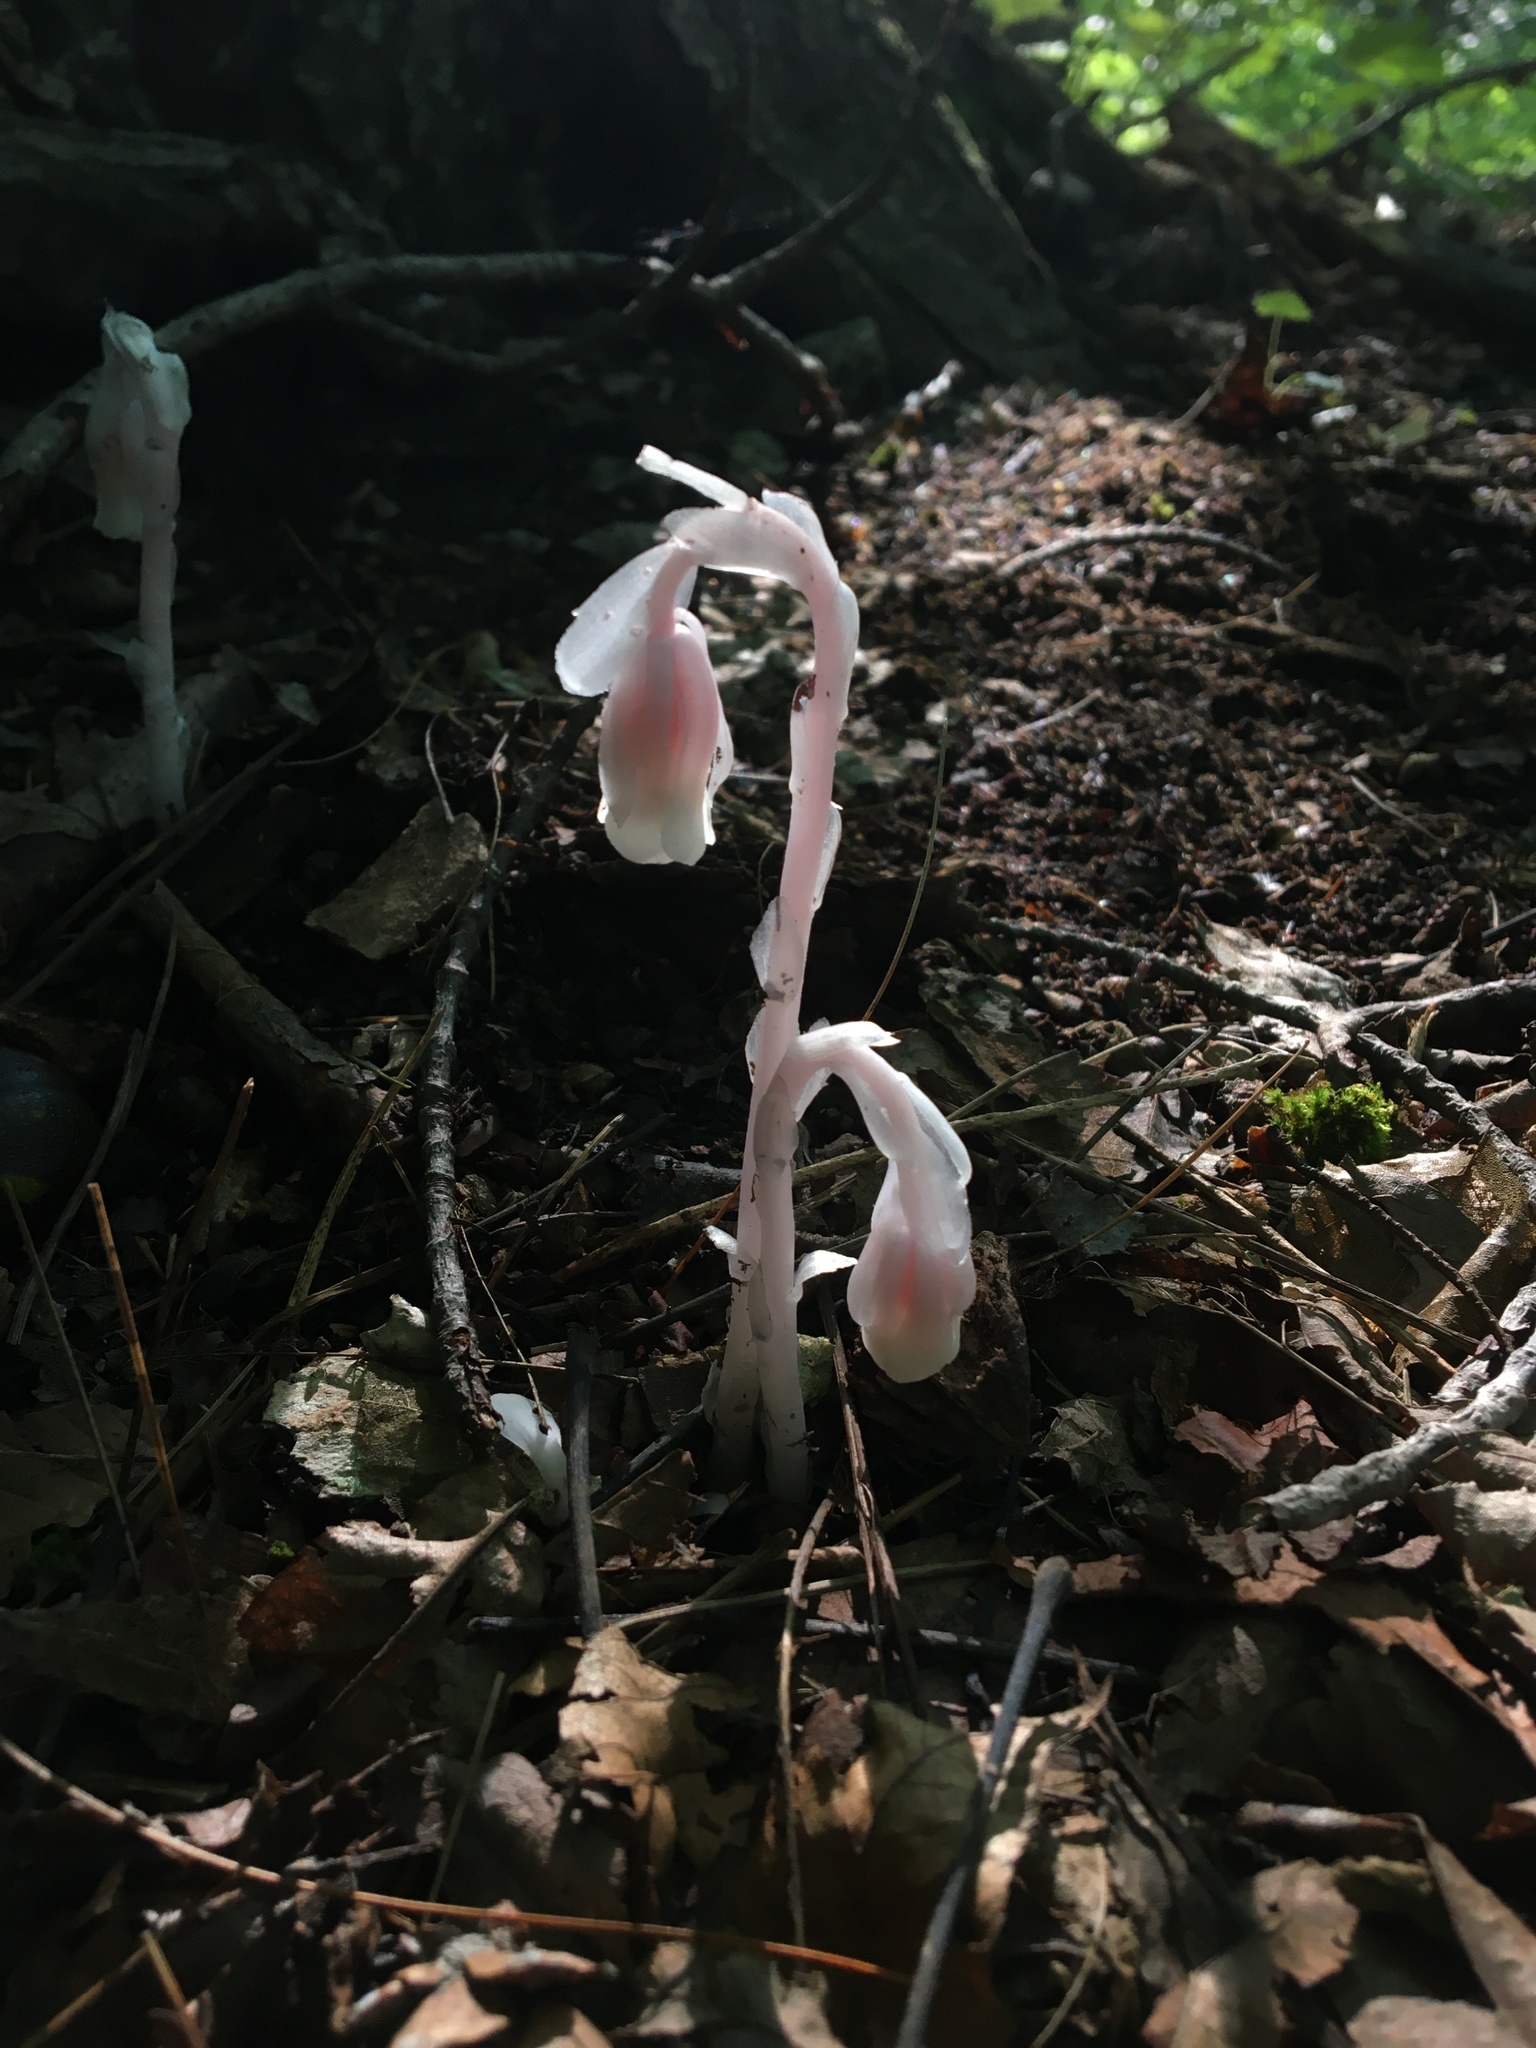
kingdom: Plantae
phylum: Tracheophyta
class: Magnoliopsida
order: Ericales
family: Ericaceae
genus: Monotropa
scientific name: Monotropa uniflora
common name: Convulsion root
